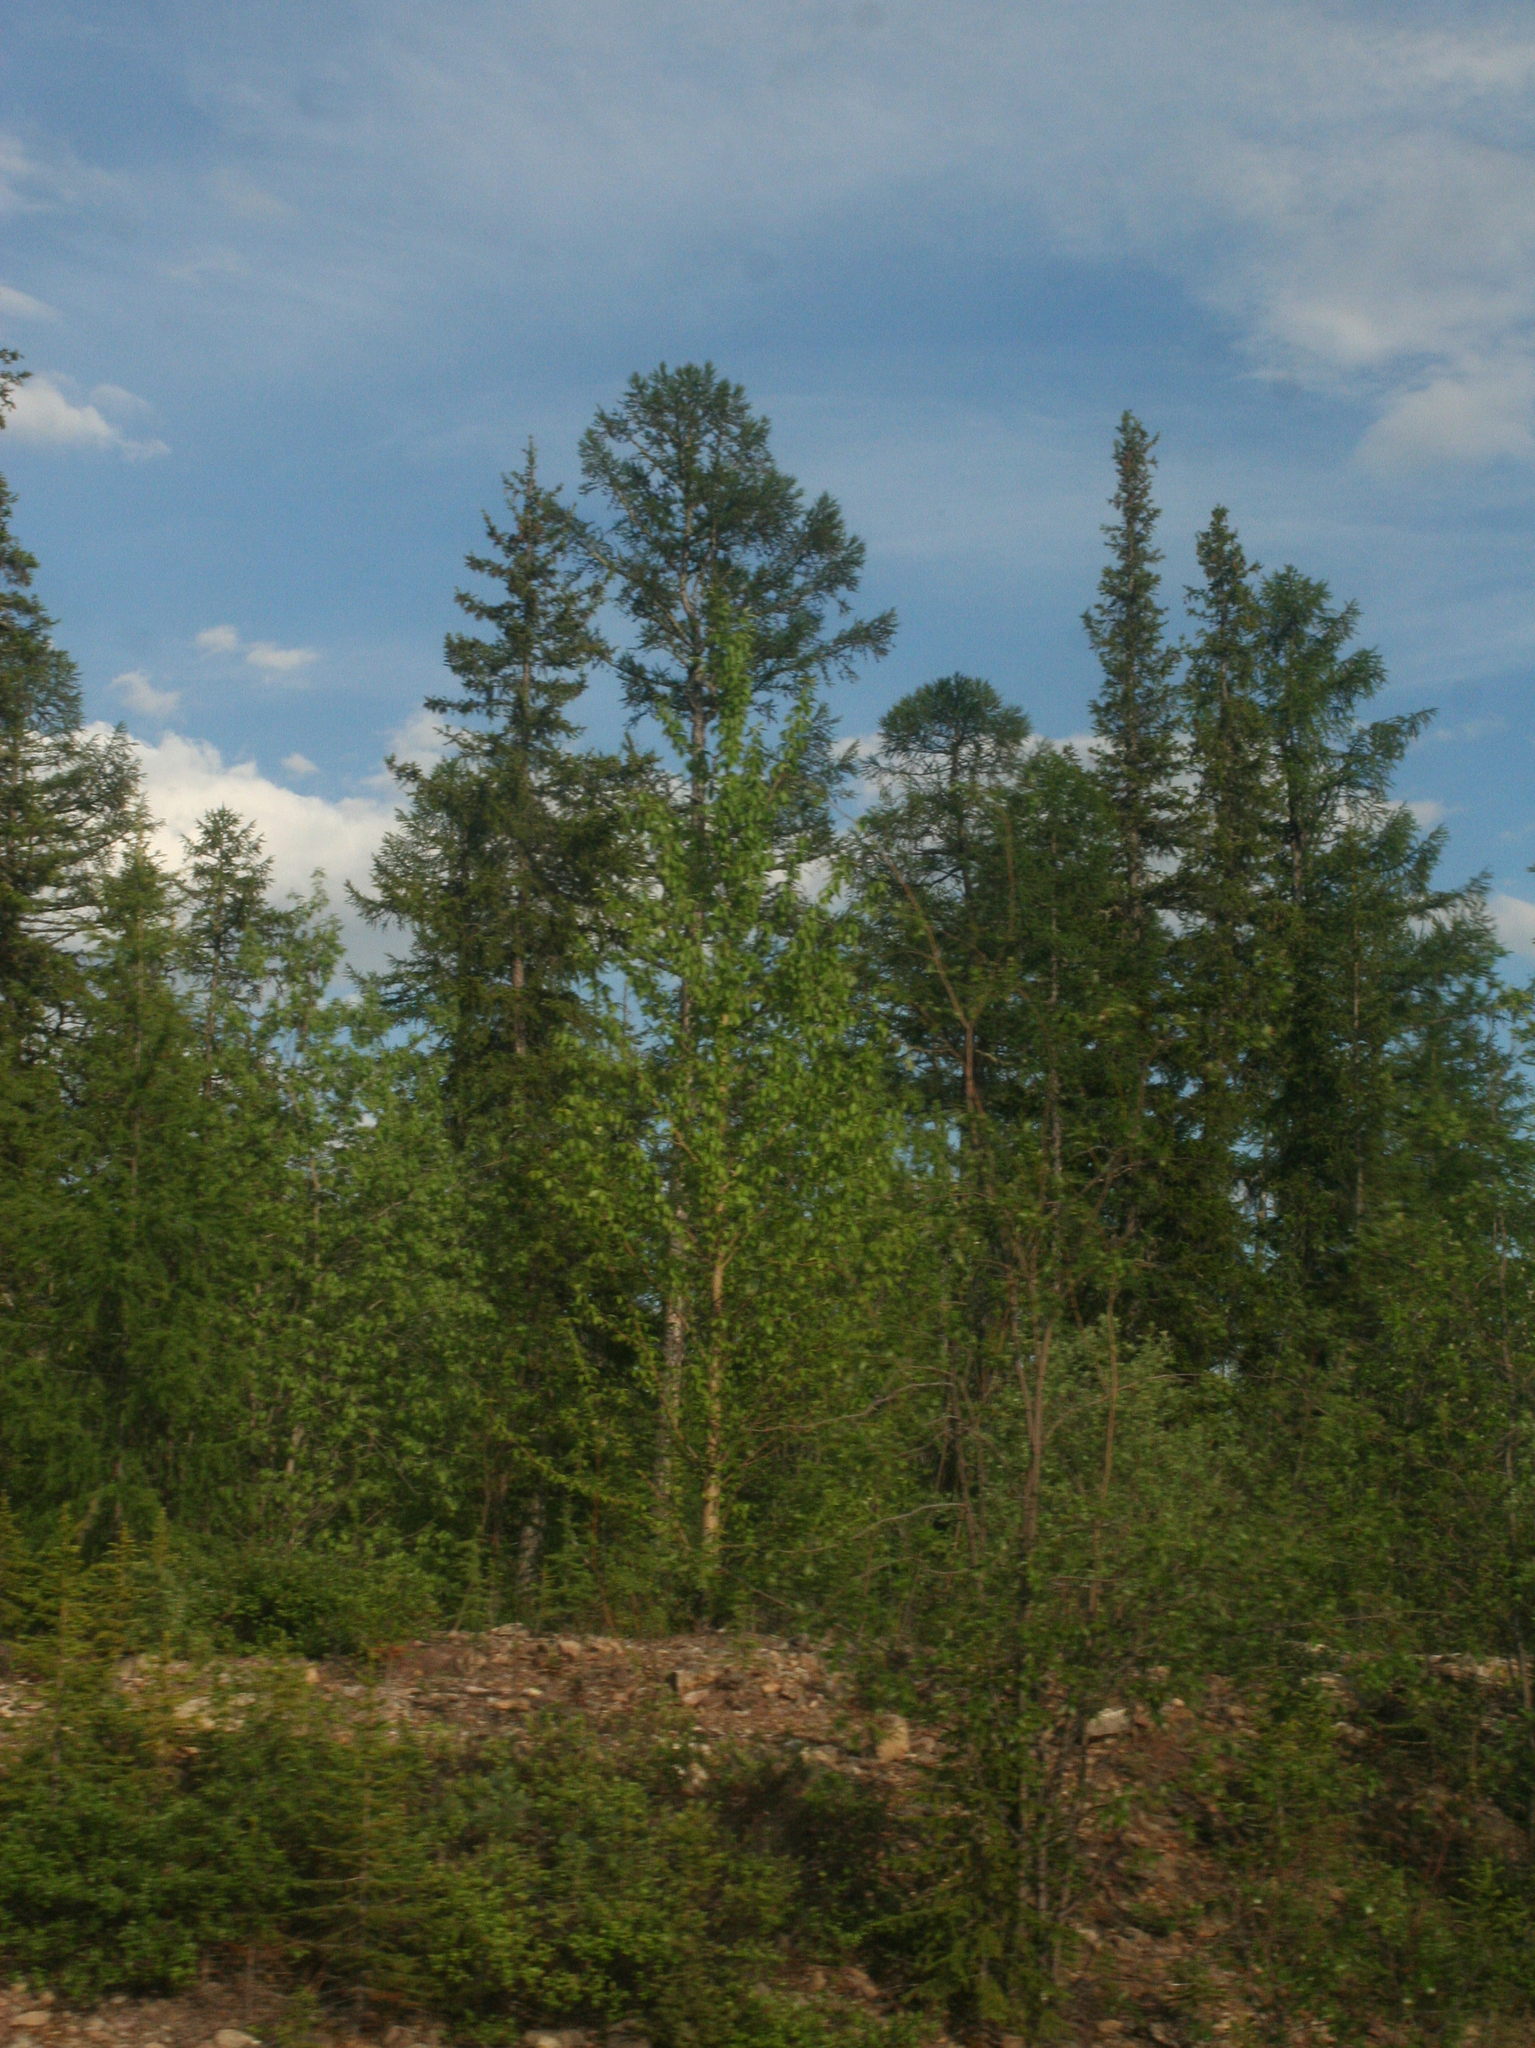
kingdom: Plantae
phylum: Tracheophyta
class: Pinopsida
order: Pinales
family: Pinaceae
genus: Larix
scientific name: Larix gmelinii
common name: Dahurian larch
